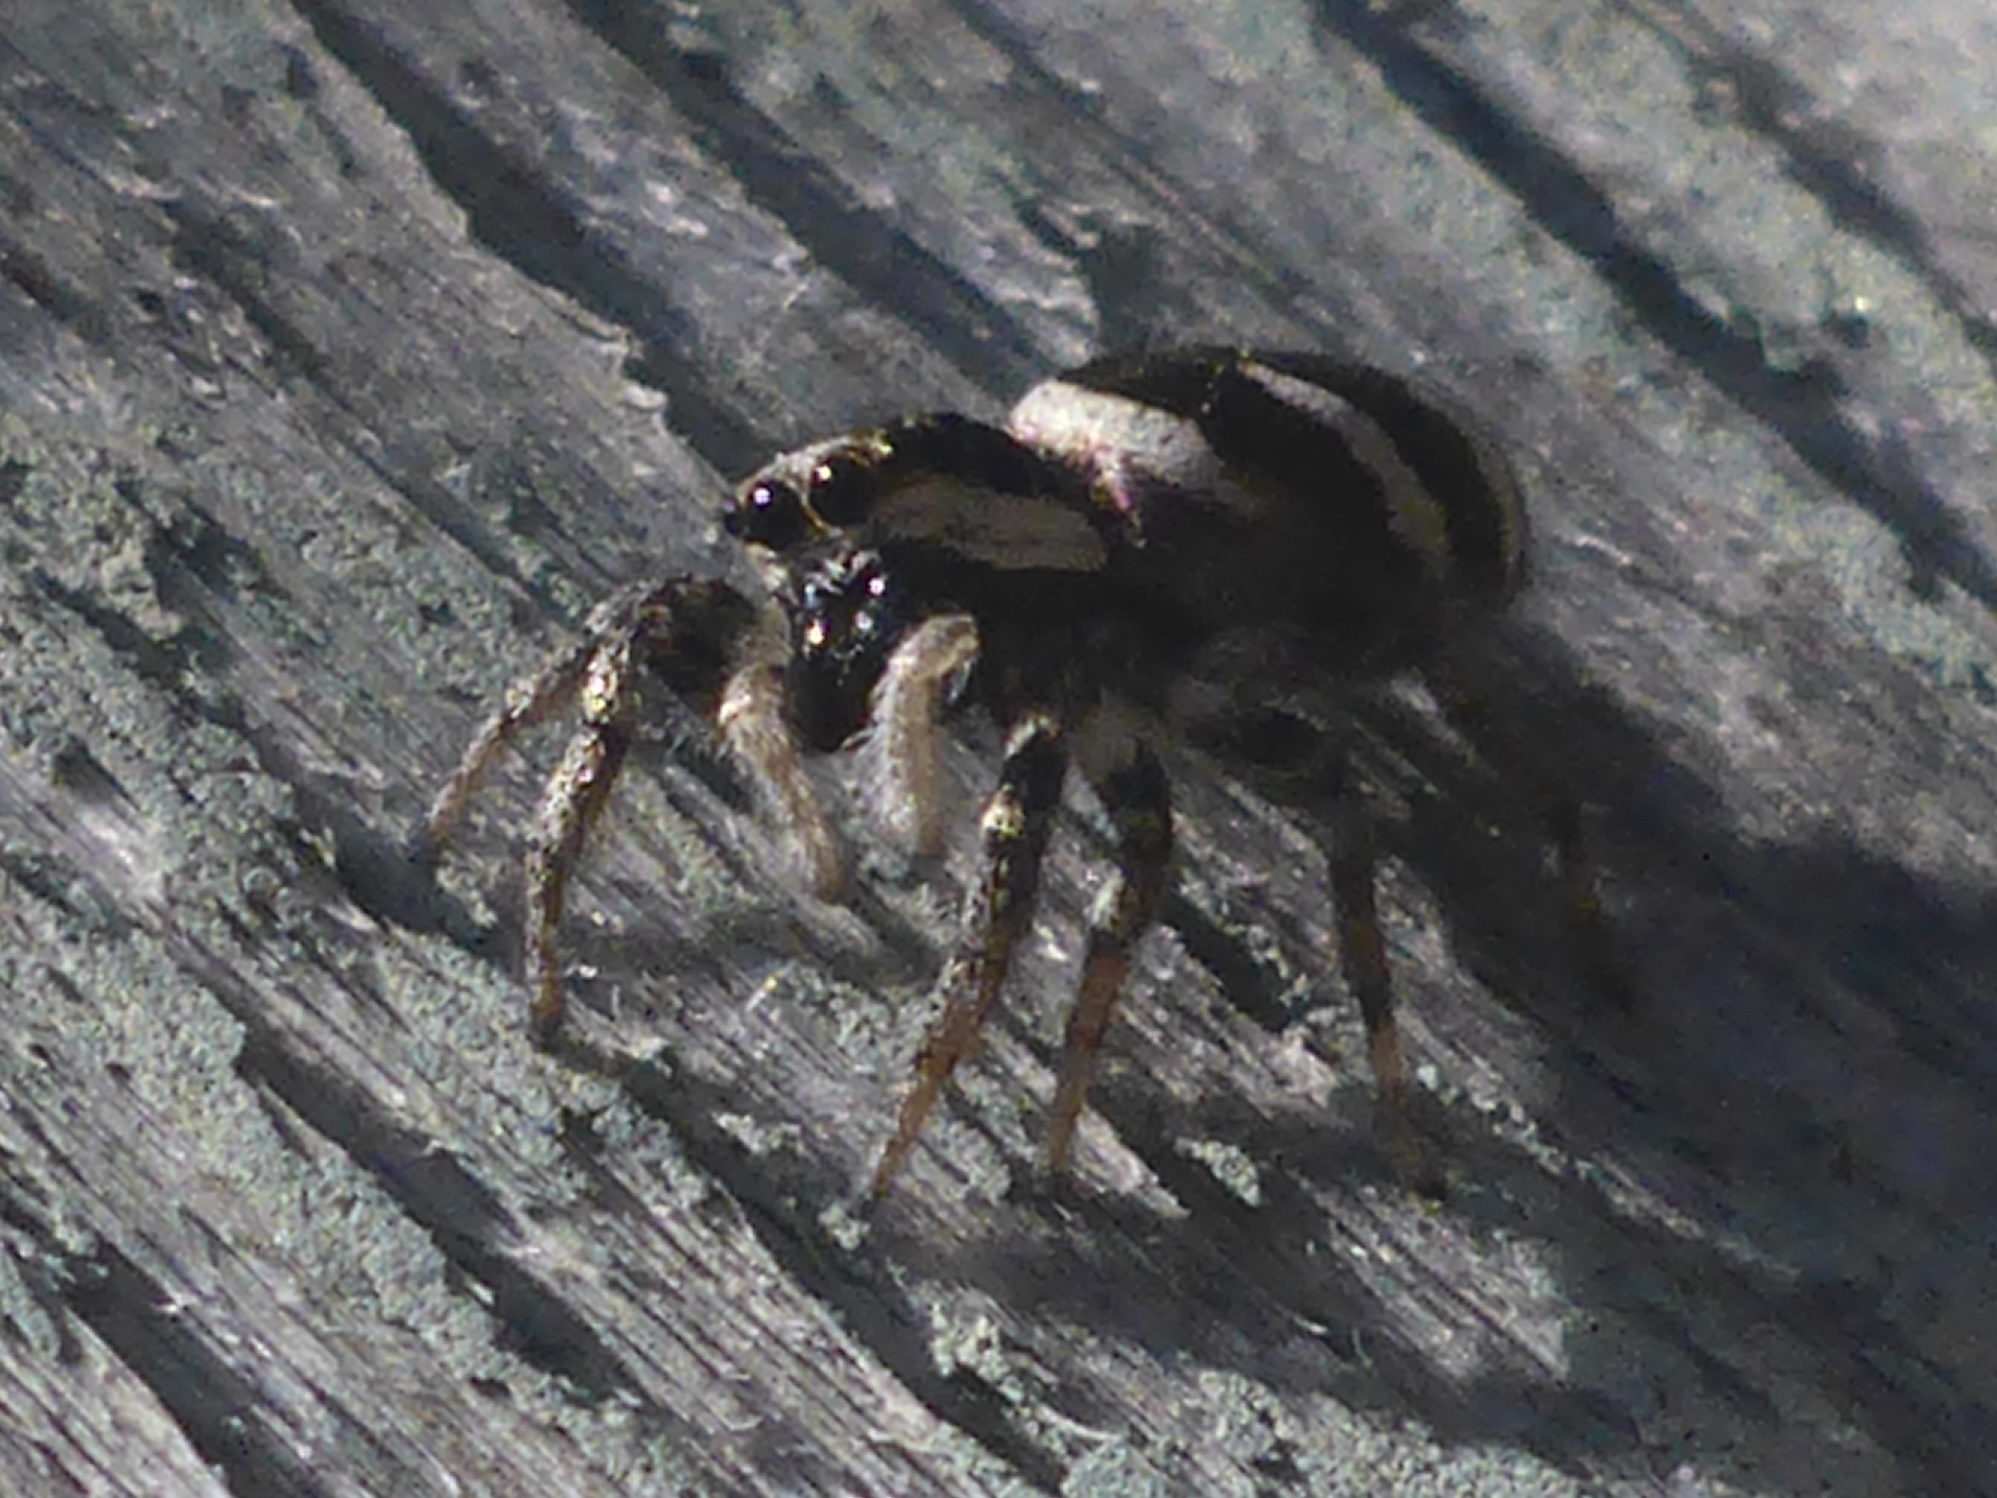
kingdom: Animalia
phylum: Arthropoda
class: Arachnida
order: Araneae
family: Salticidae
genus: Salticus
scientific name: Salticus scenicus
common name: Zebra jumper
